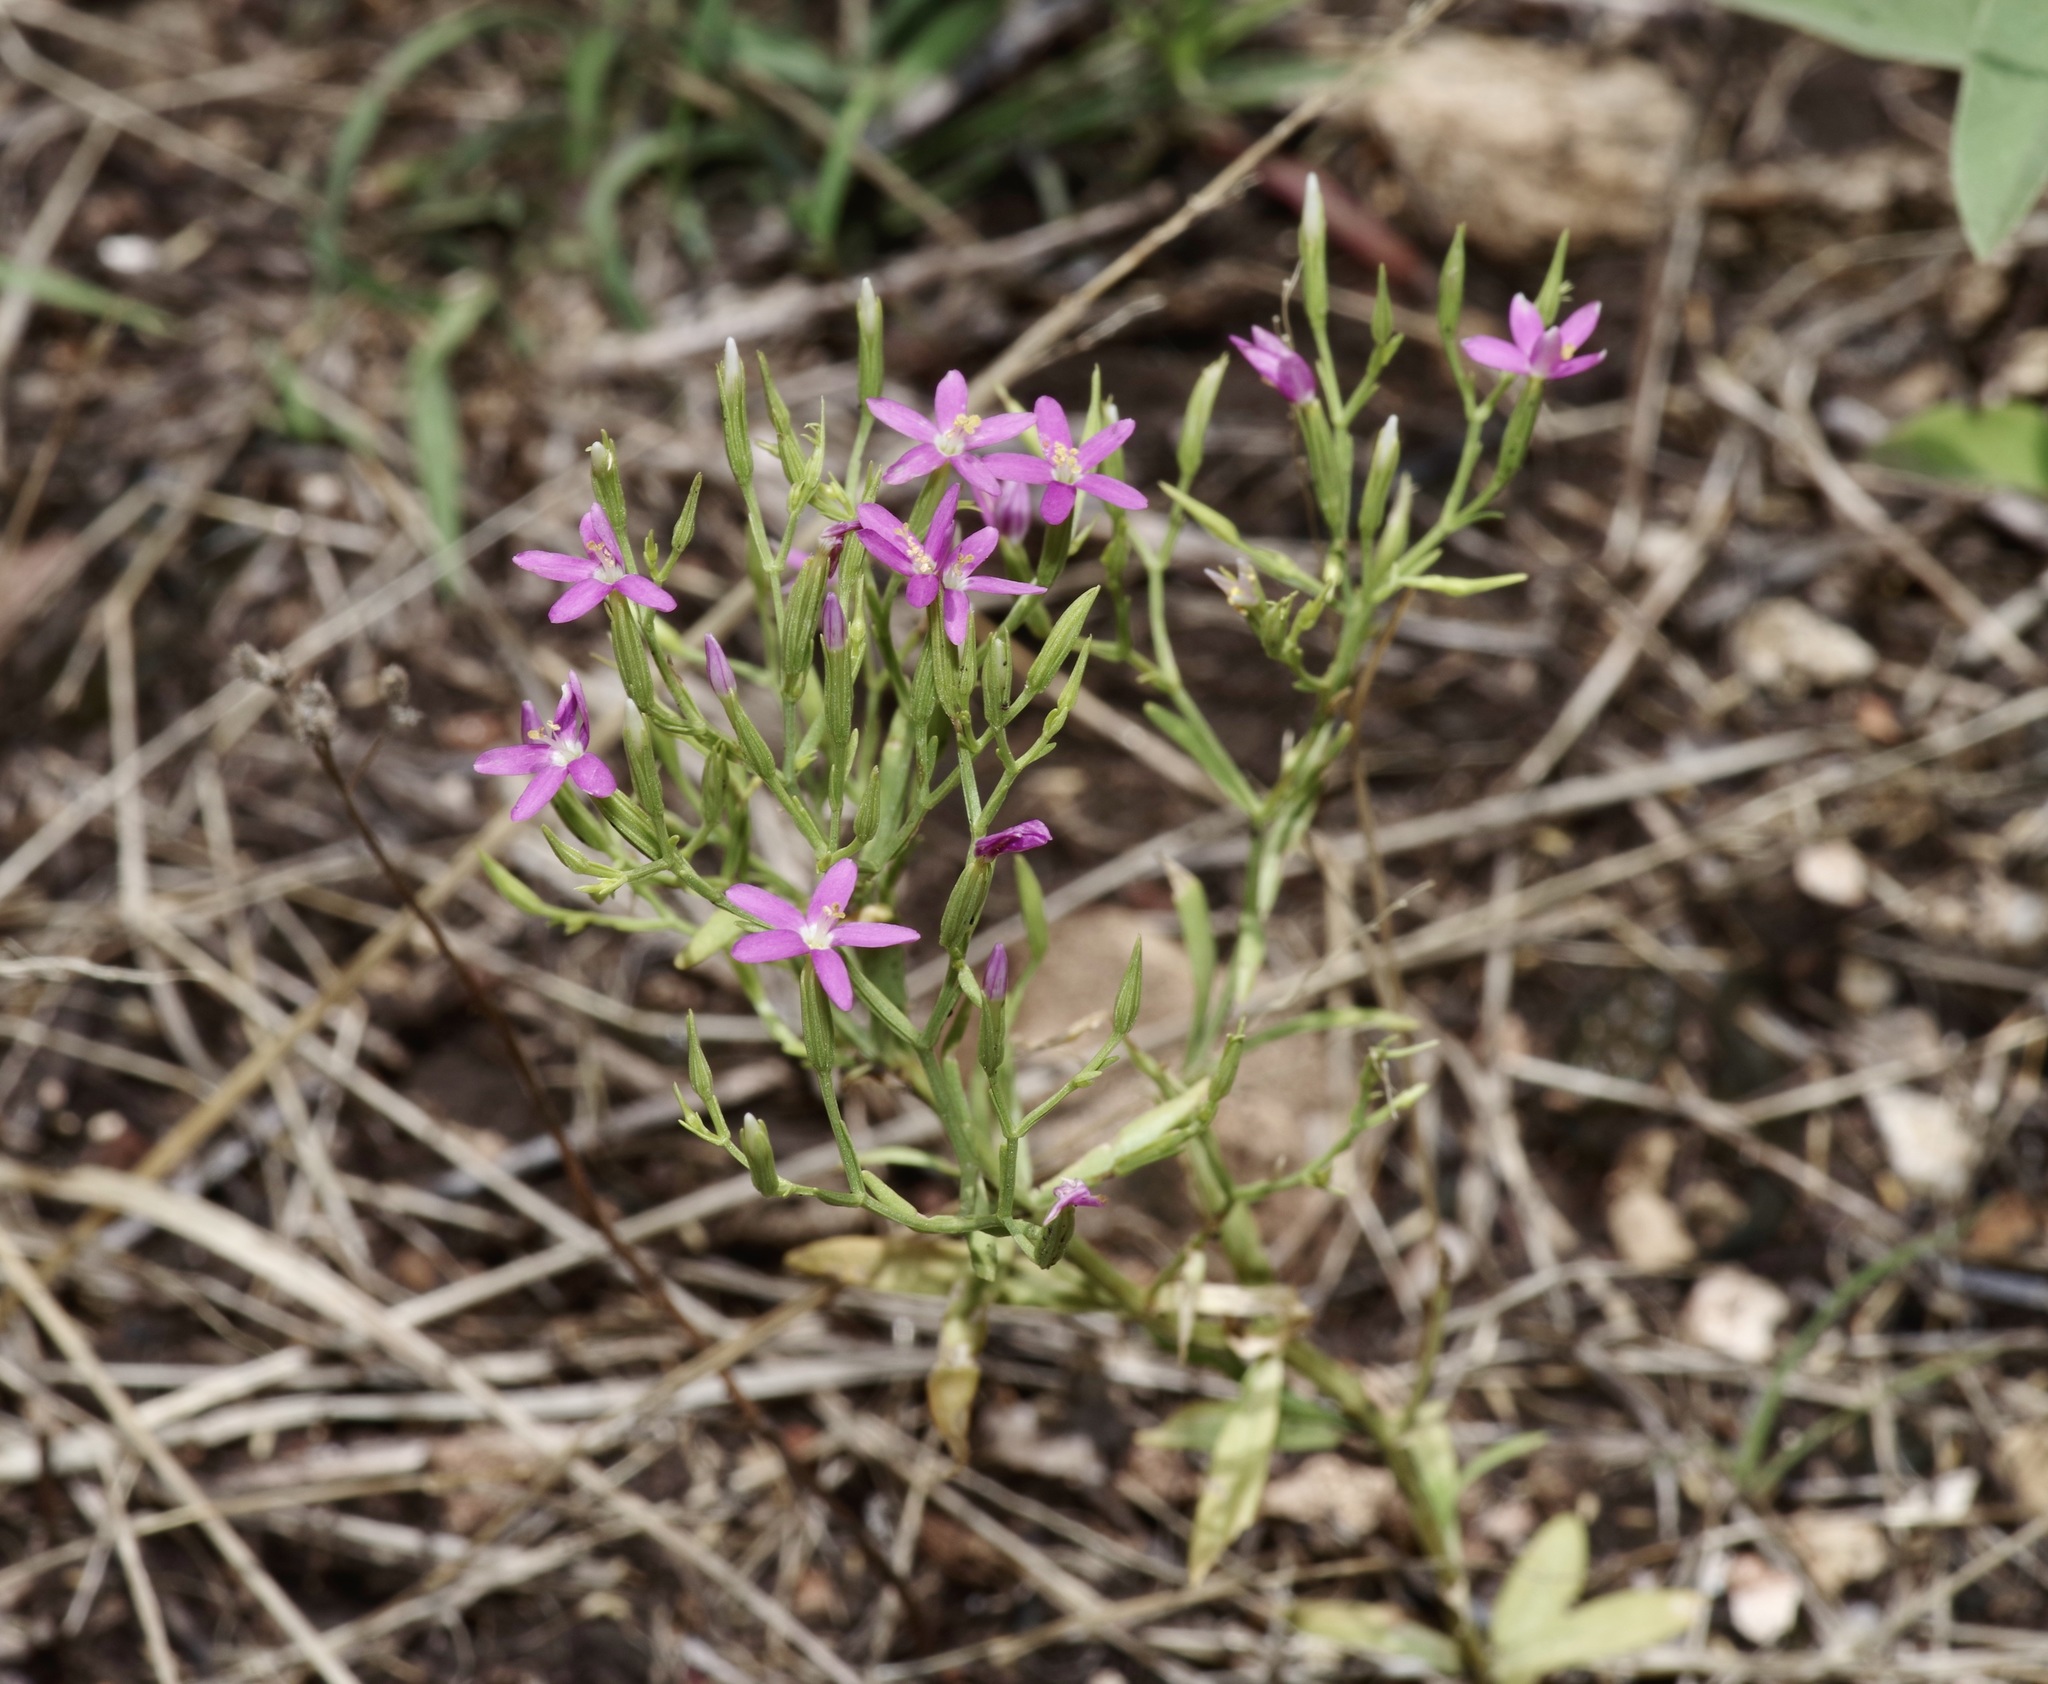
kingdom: Plantae
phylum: Tracheophyta
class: Magnoliopsida
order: Gentianales
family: Gentianaceae
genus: Zeltnera
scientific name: Zeltnera texensis
